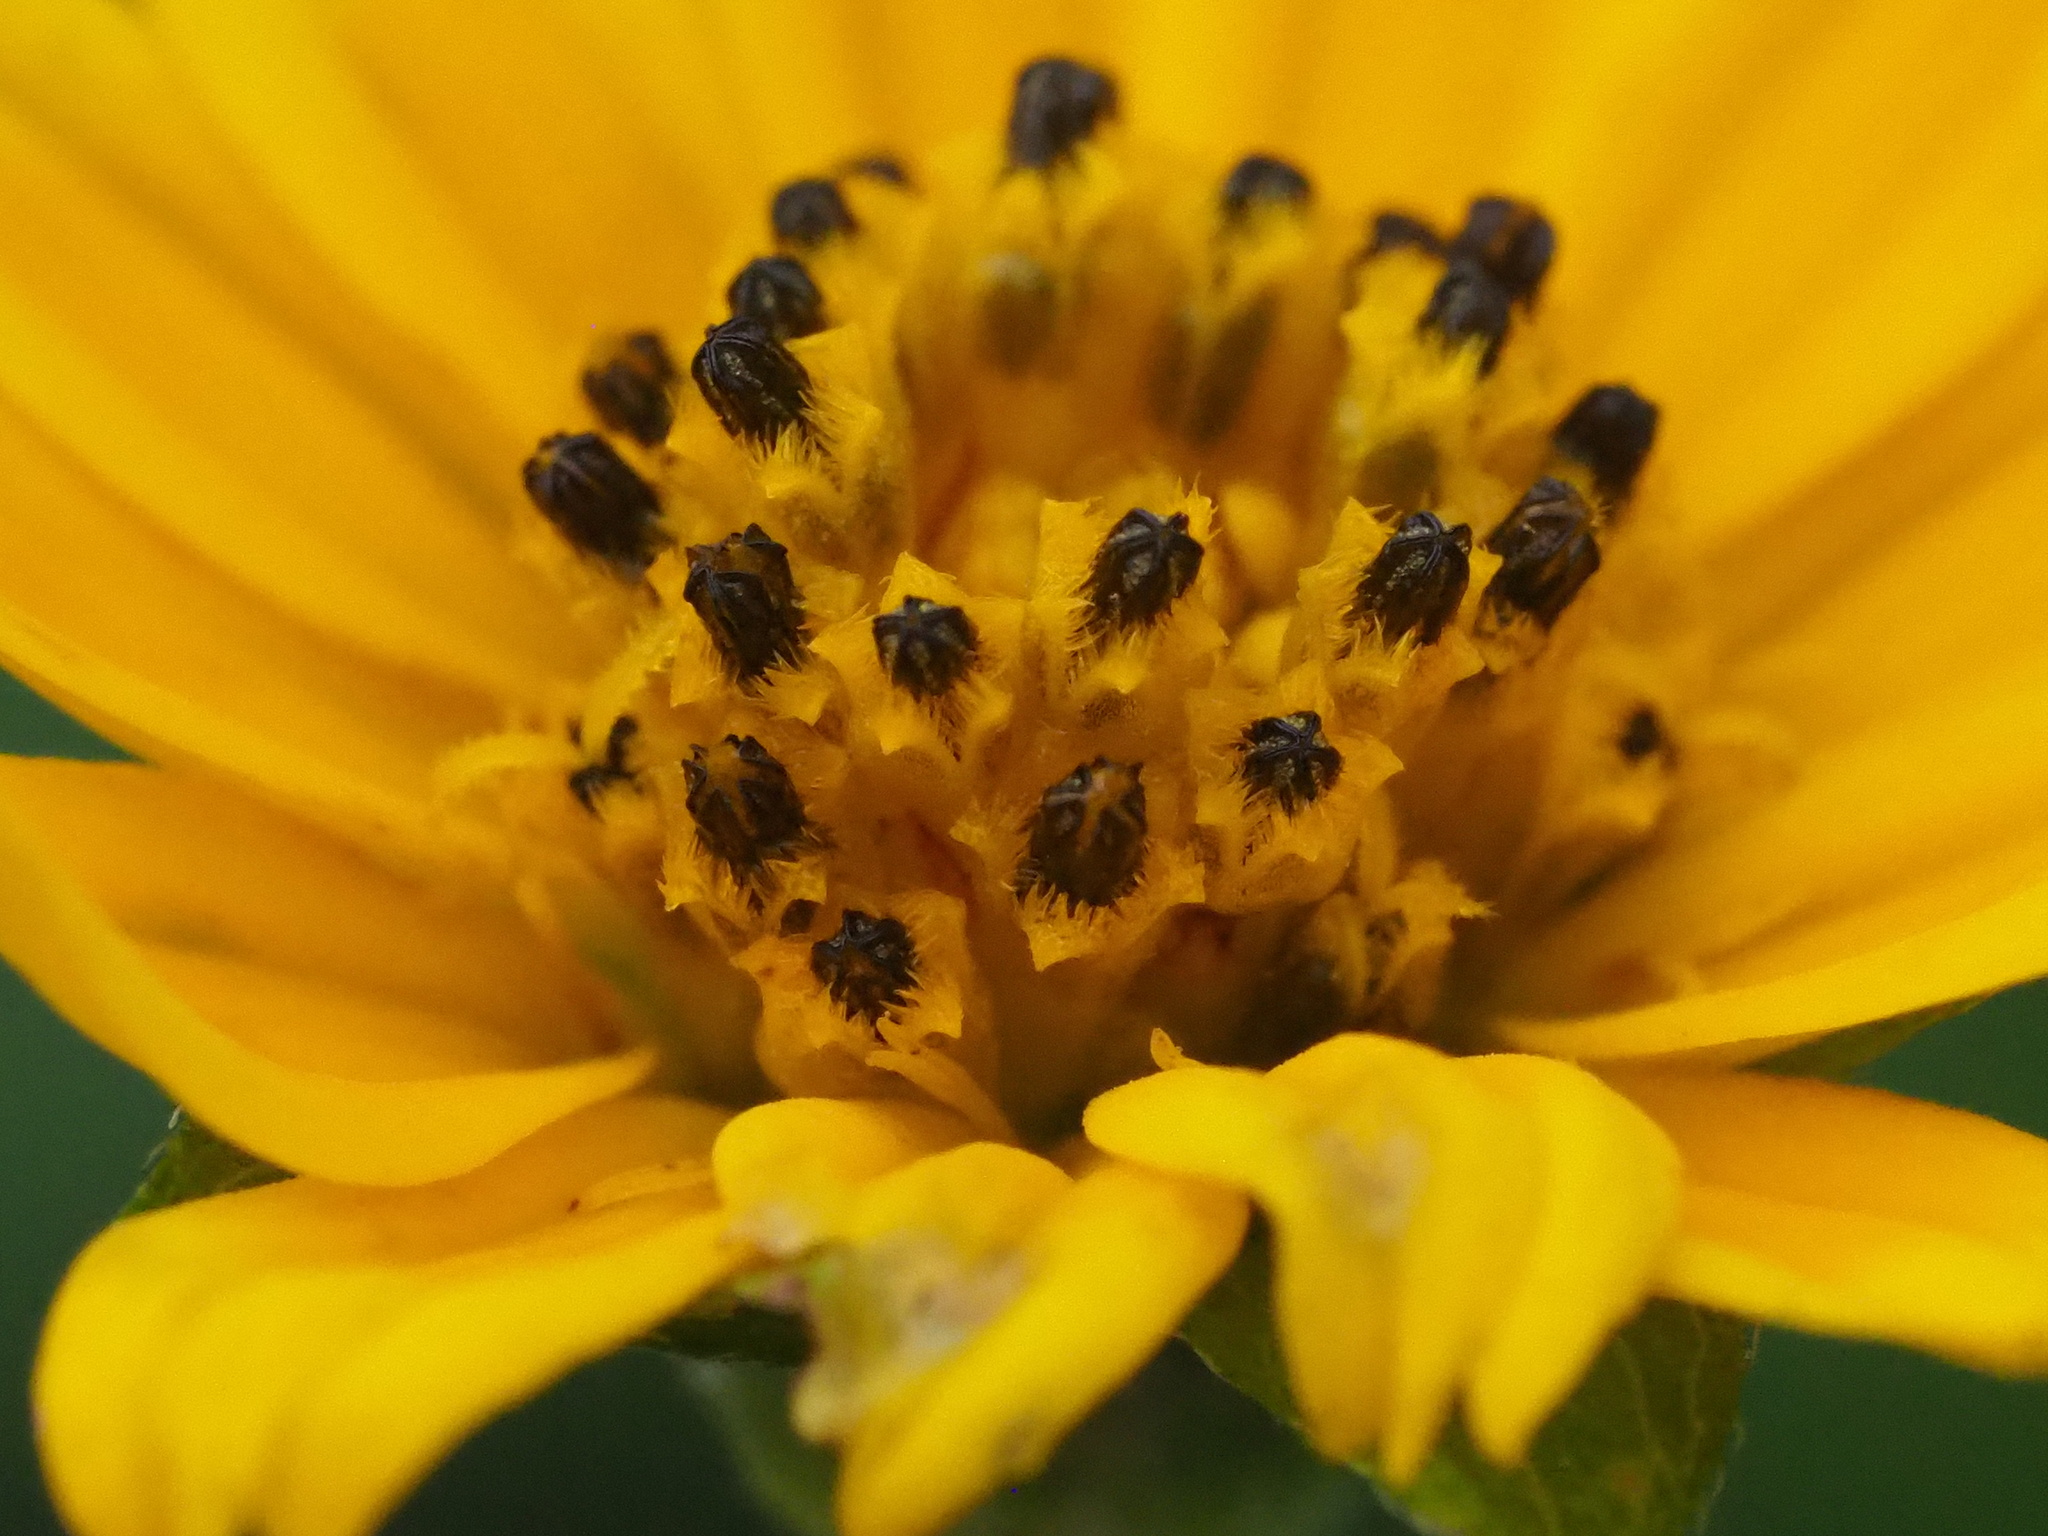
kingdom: Plantae
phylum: Tracheophyta
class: Magnoliopsida
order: Asterales
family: Asteraceae
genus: Sphagneticola
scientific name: Sphagneticola trilobata
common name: Bay biscayne creeping-oxeye
